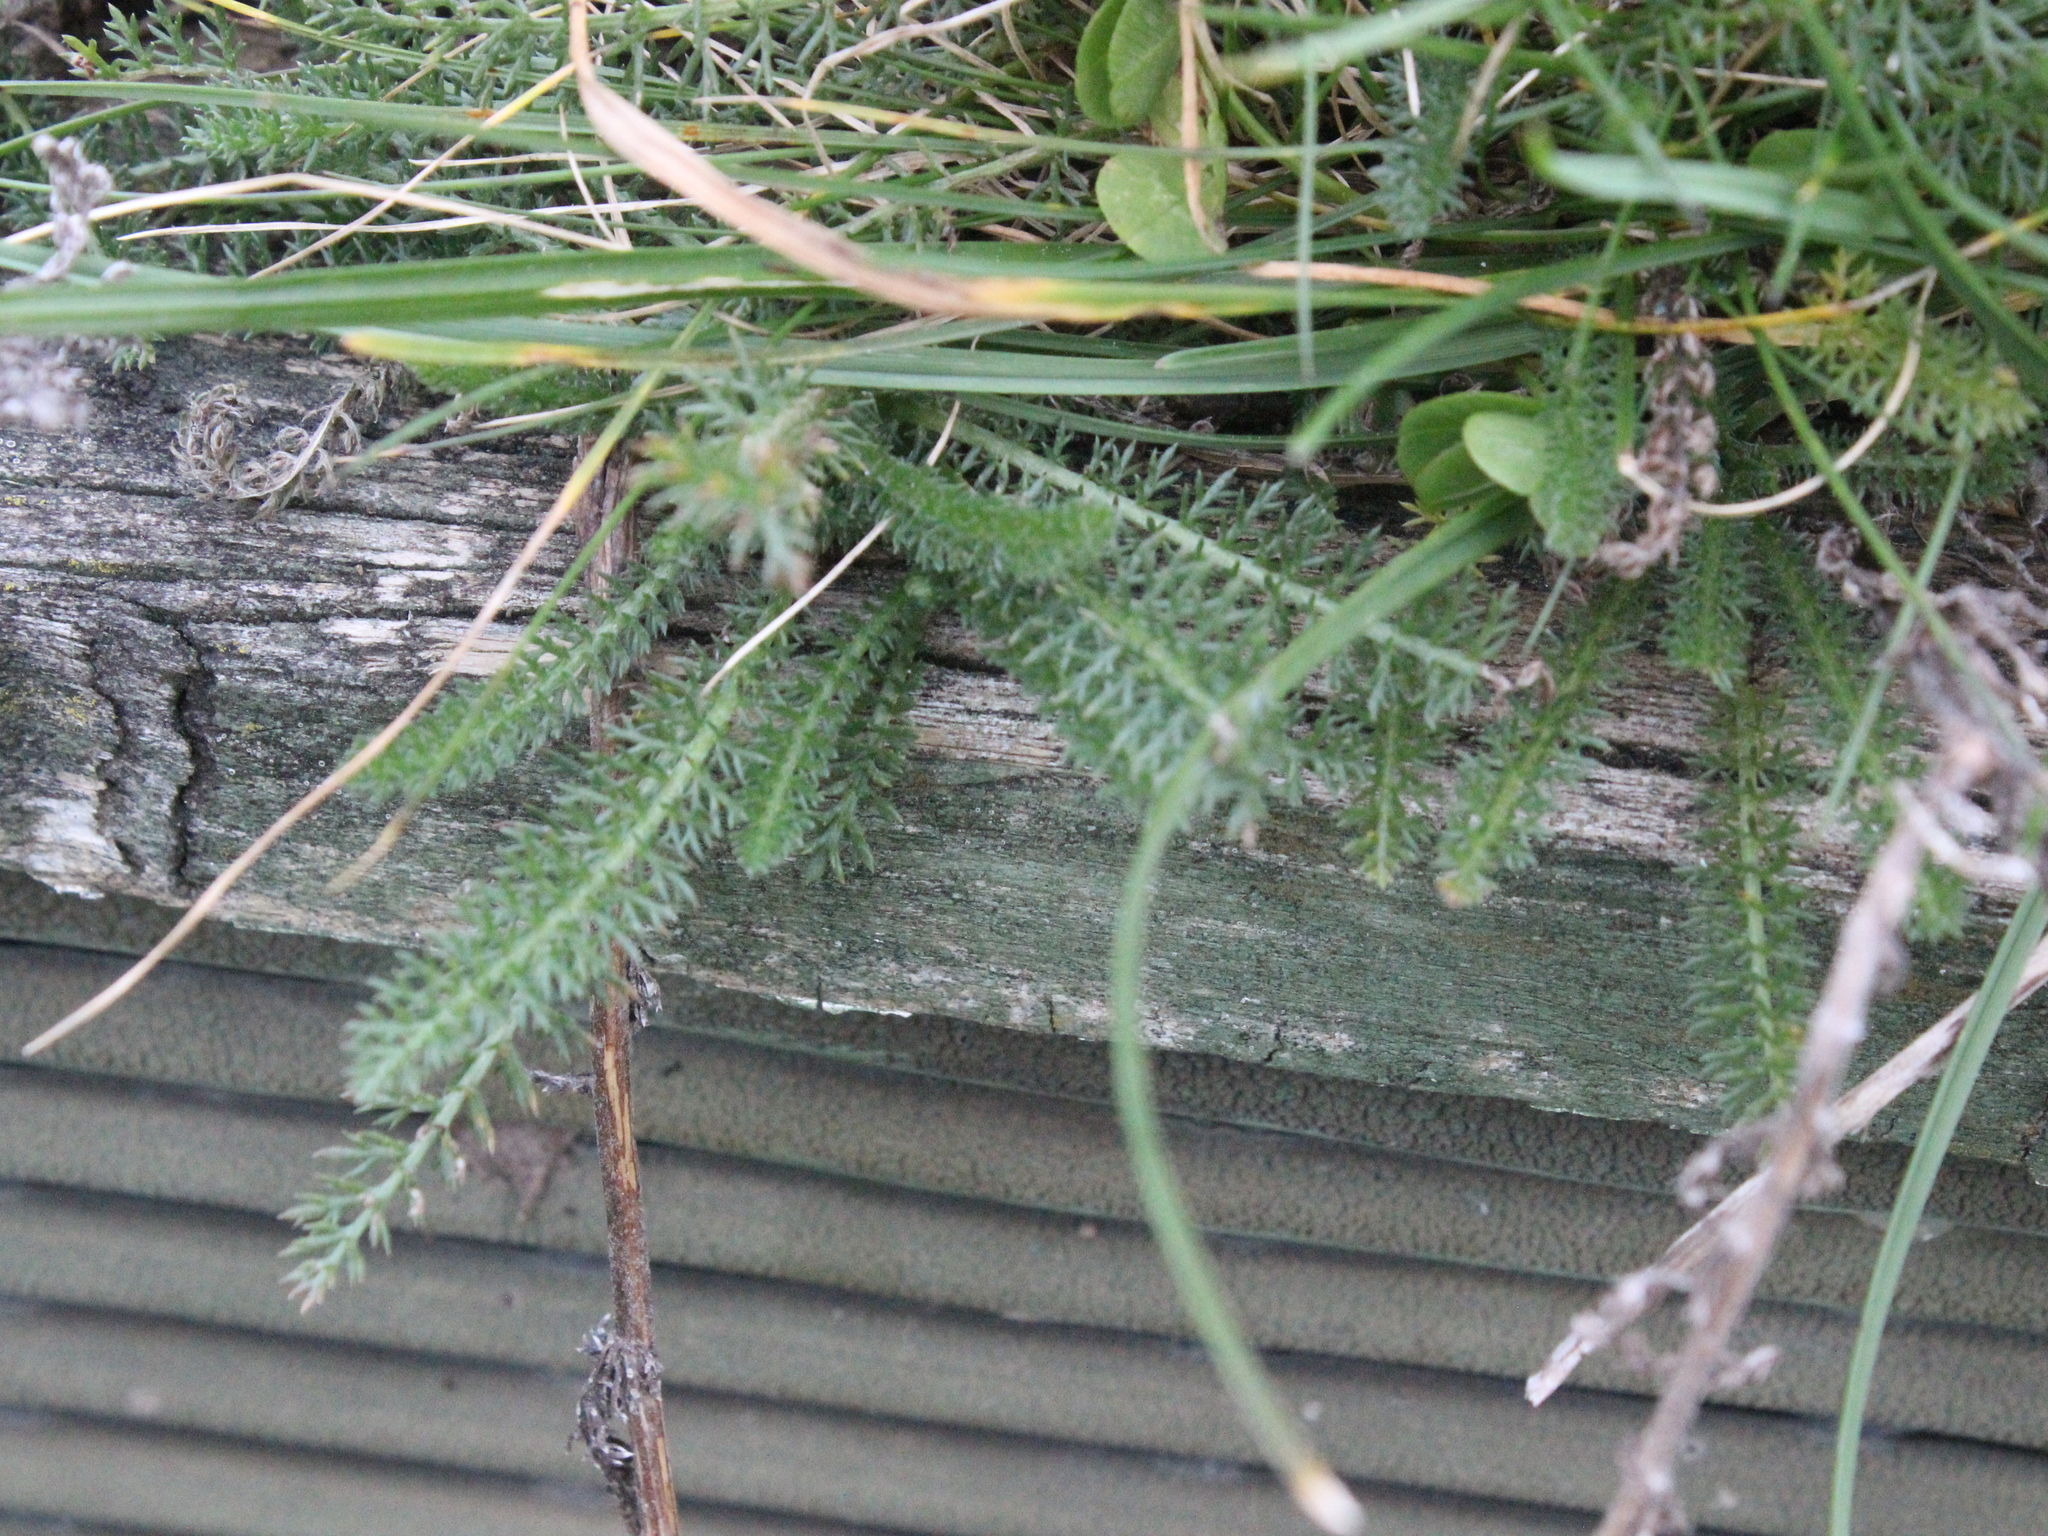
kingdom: Plantae
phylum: Tracheophyta
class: Magnoliopsida
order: Asterales
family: Asteraceae
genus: Achillea
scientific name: Achillea millefolium
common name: Yarrow
